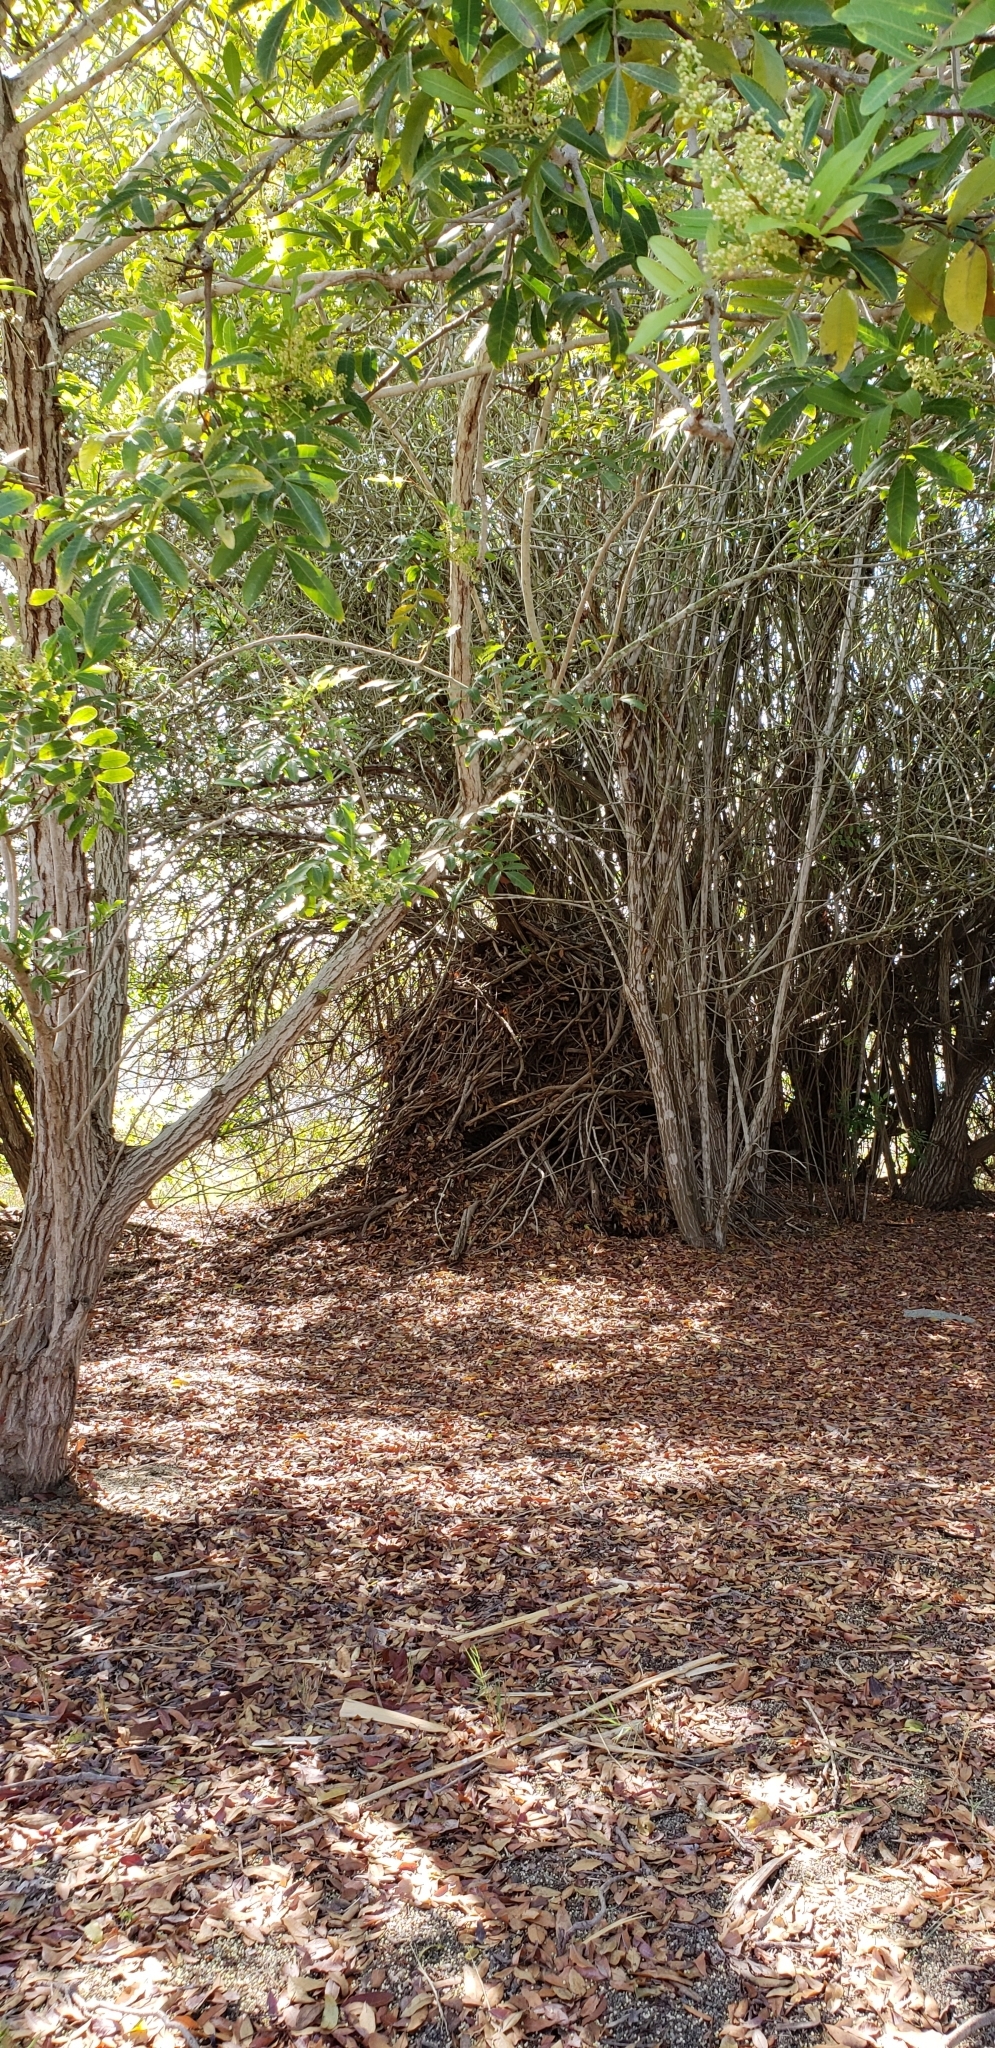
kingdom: Animalia
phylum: Chordata
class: Mammalia
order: Rodentia
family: Cricetidae
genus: Neotoma
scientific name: Neotoma
